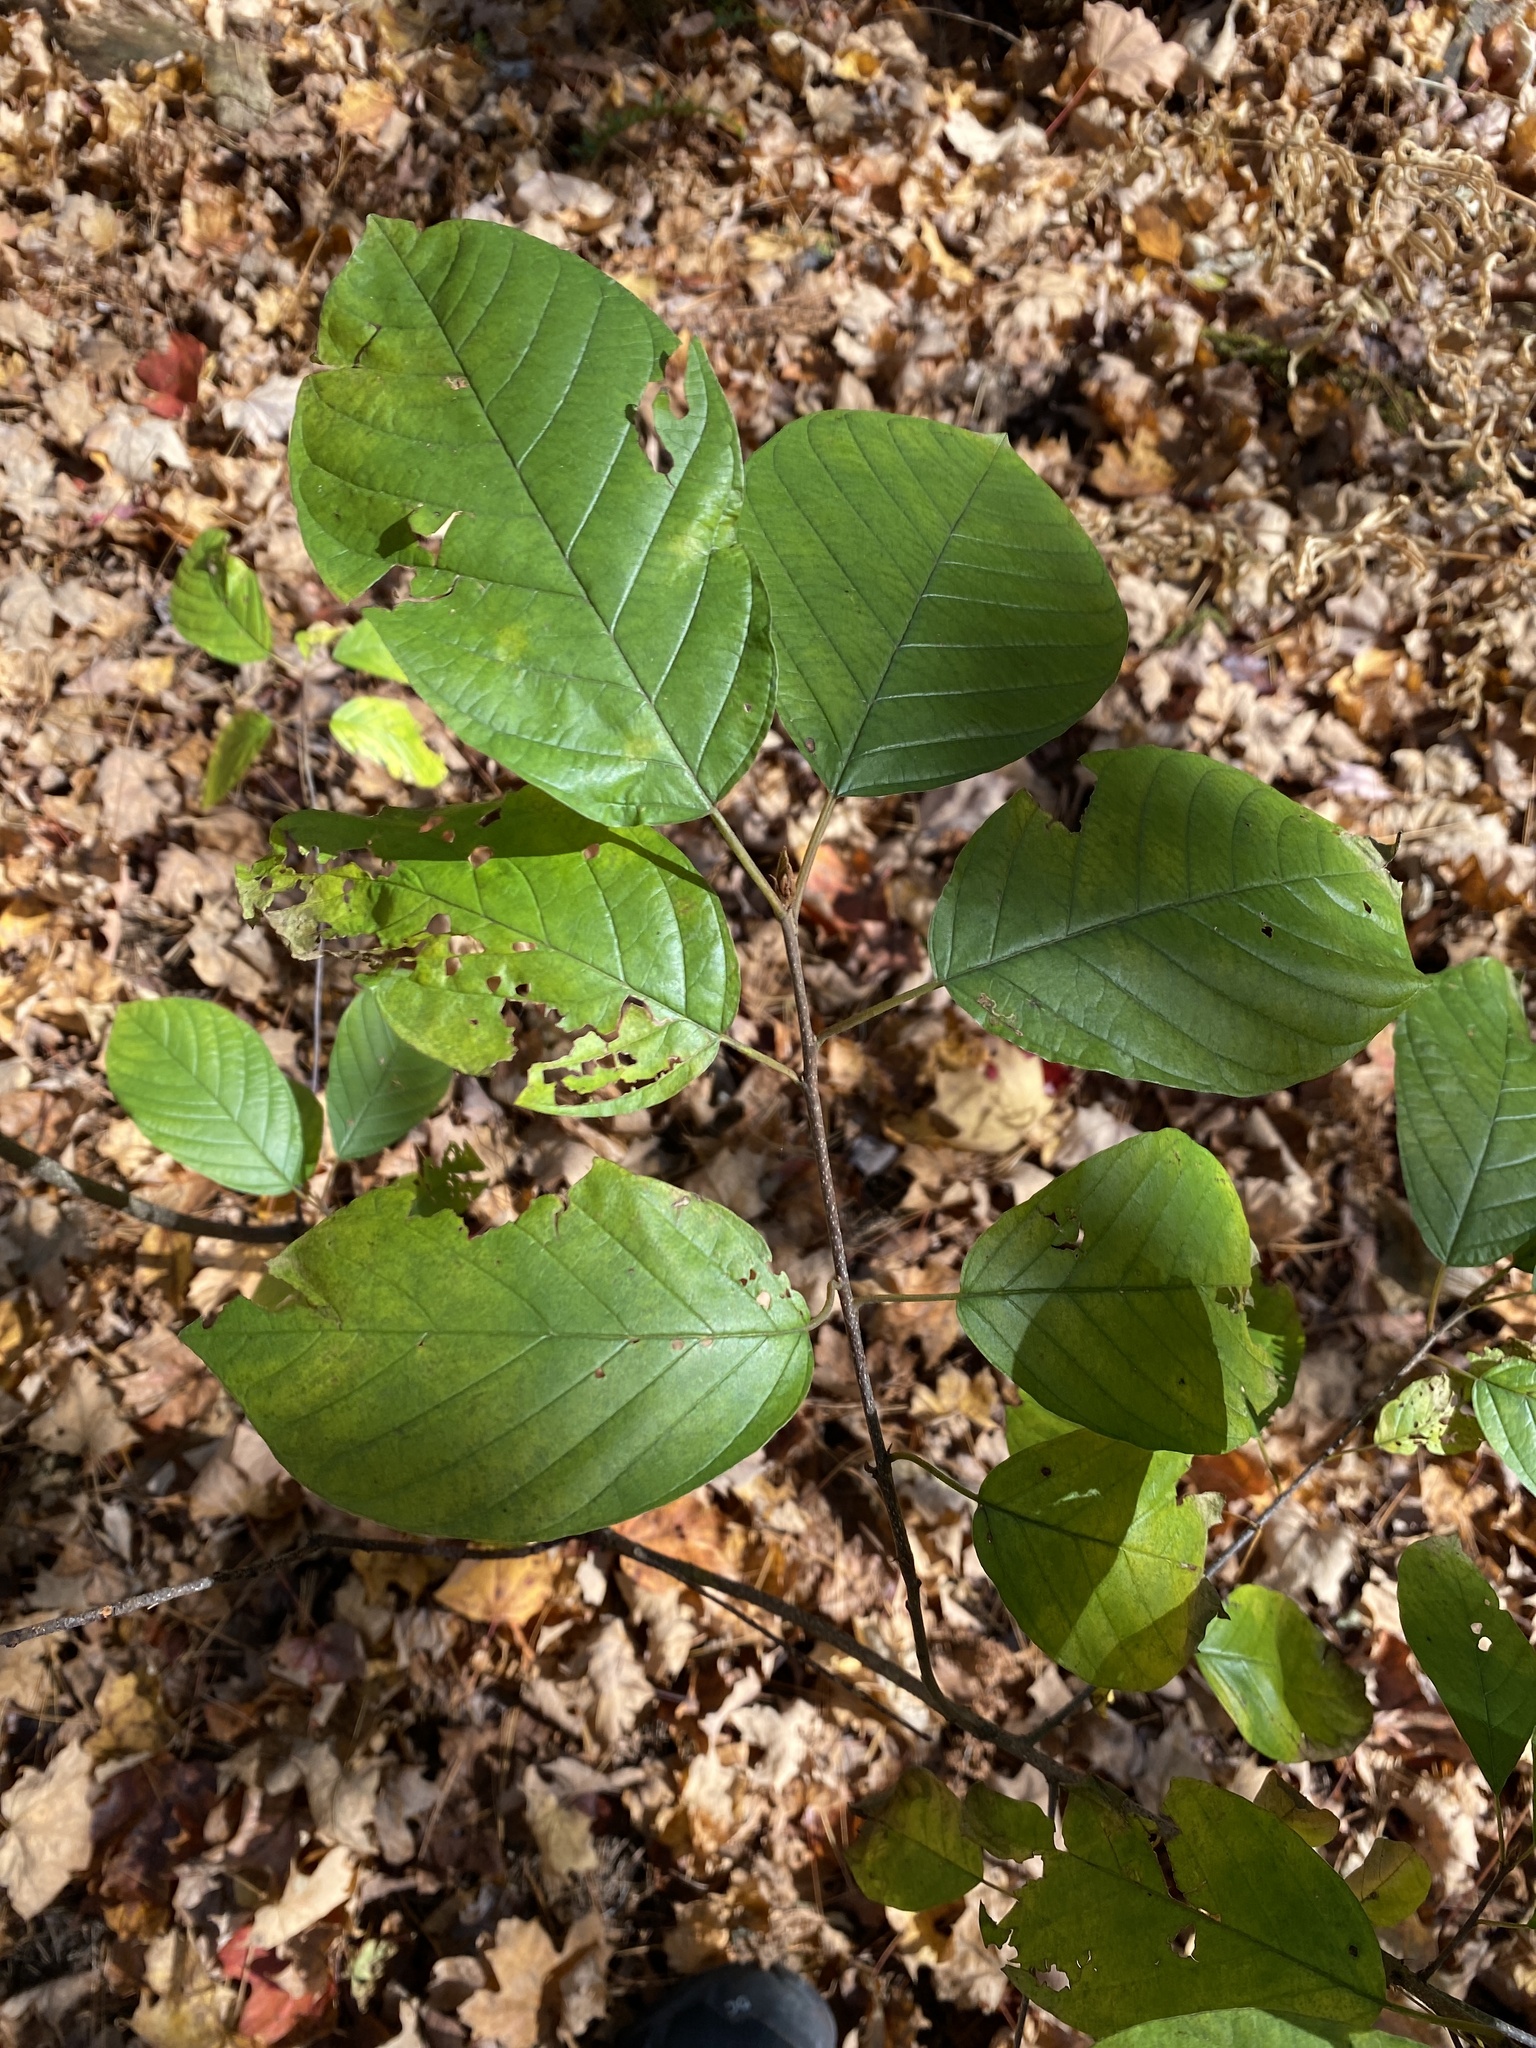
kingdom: Plantae
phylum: Tracheophyta
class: Magnoliopsida
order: Rosales
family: Rhamnaceae
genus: Frangula
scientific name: Frangula alnus
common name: Alder buckthorn
